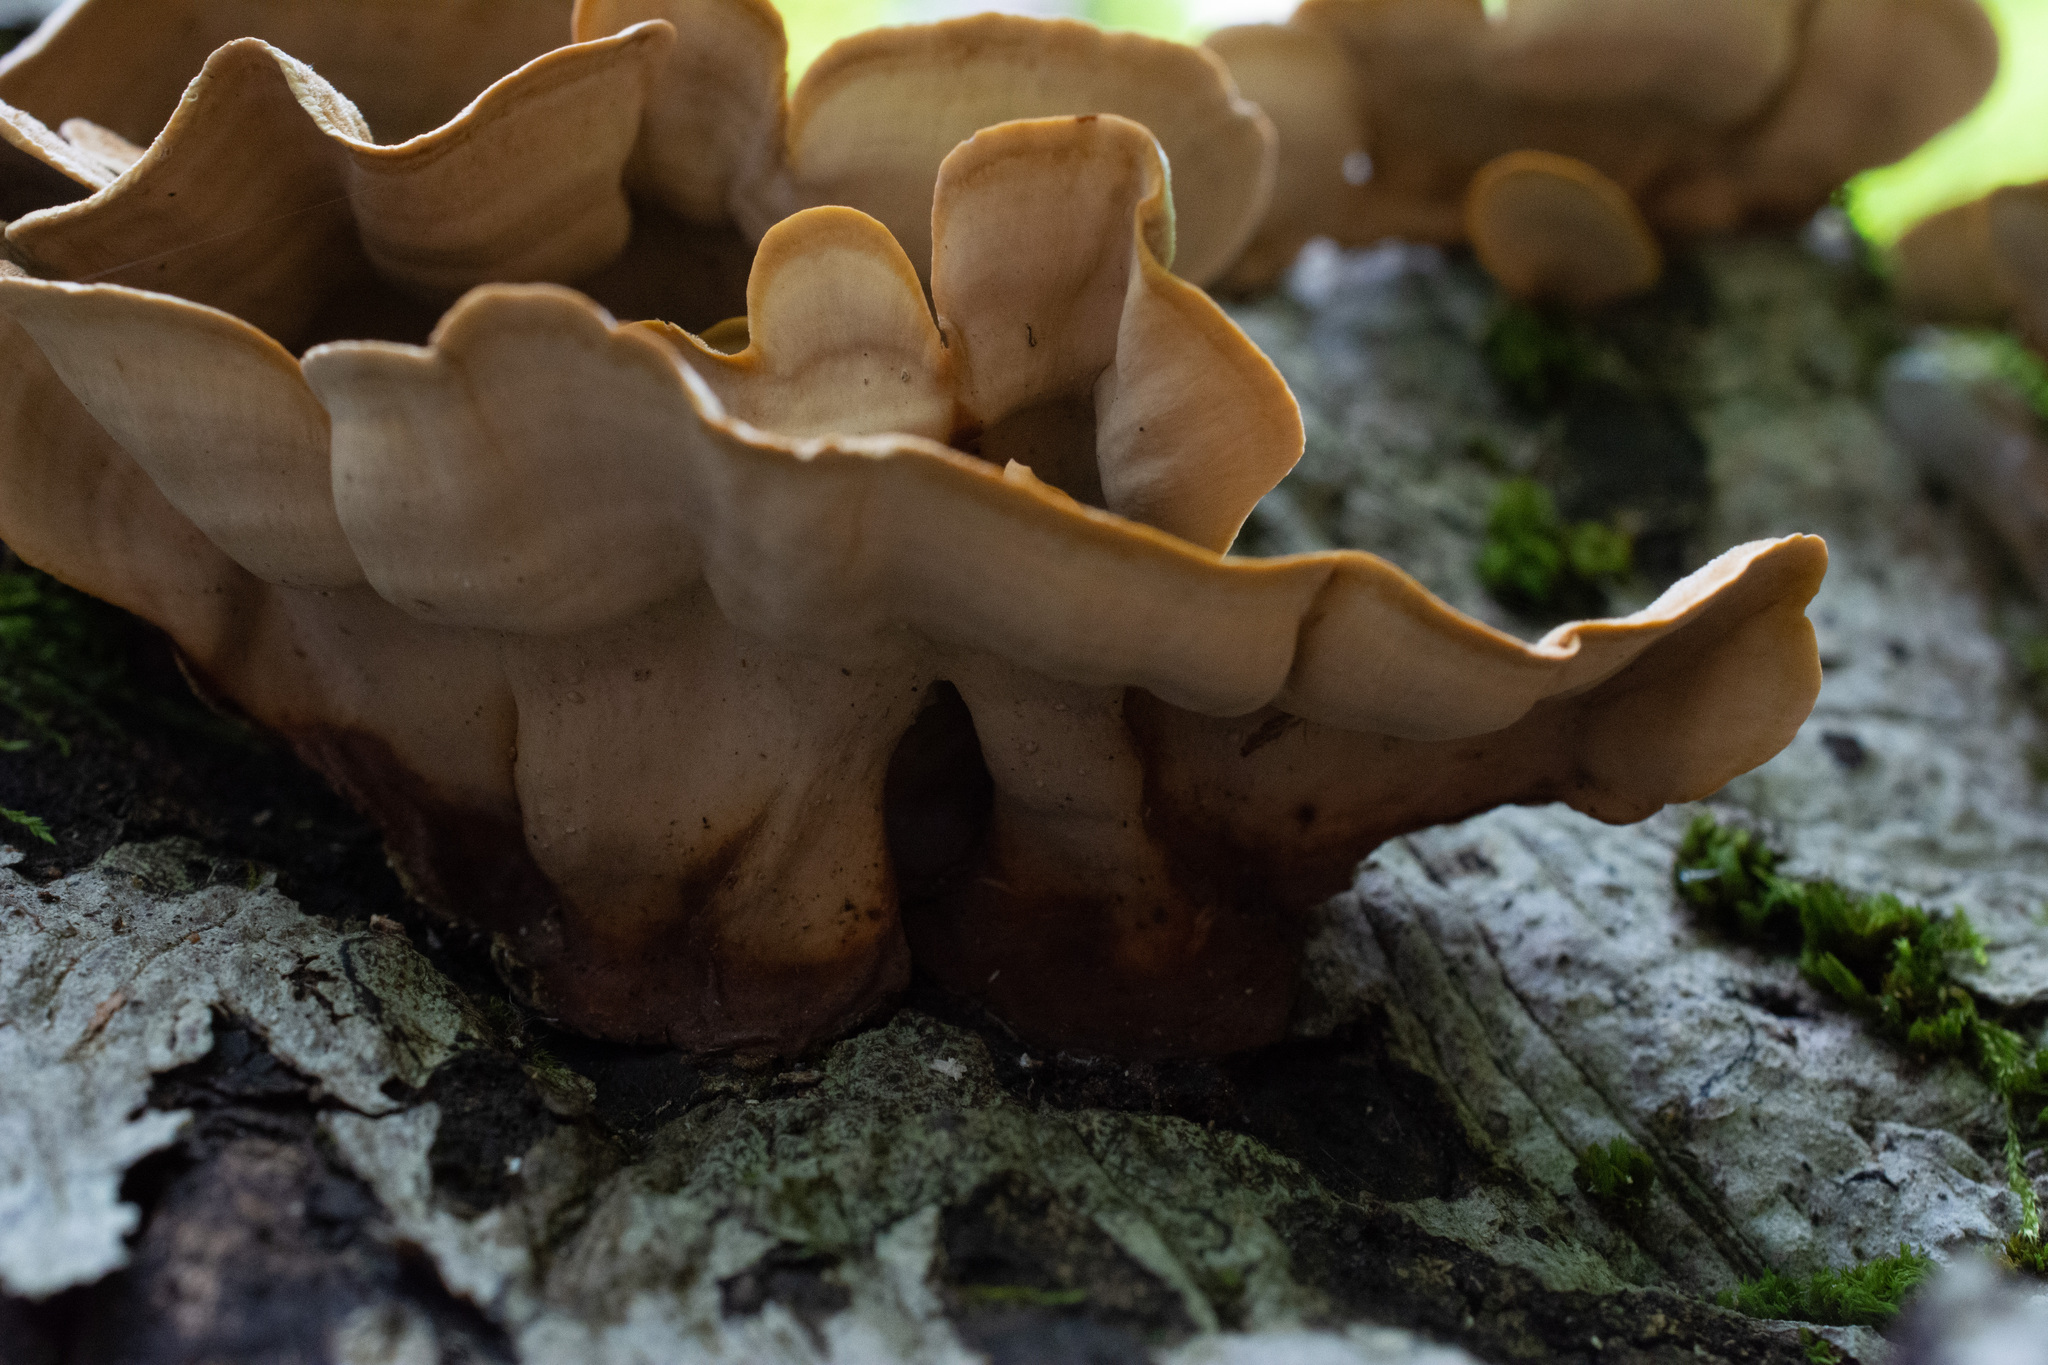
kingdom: Fungi
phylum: Basidiomycota
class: Agaricomycetes
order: Russulales
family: Stereaceae
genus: Stereum
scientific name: Stereum subtomentosum
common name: Yellowing curtain crust
